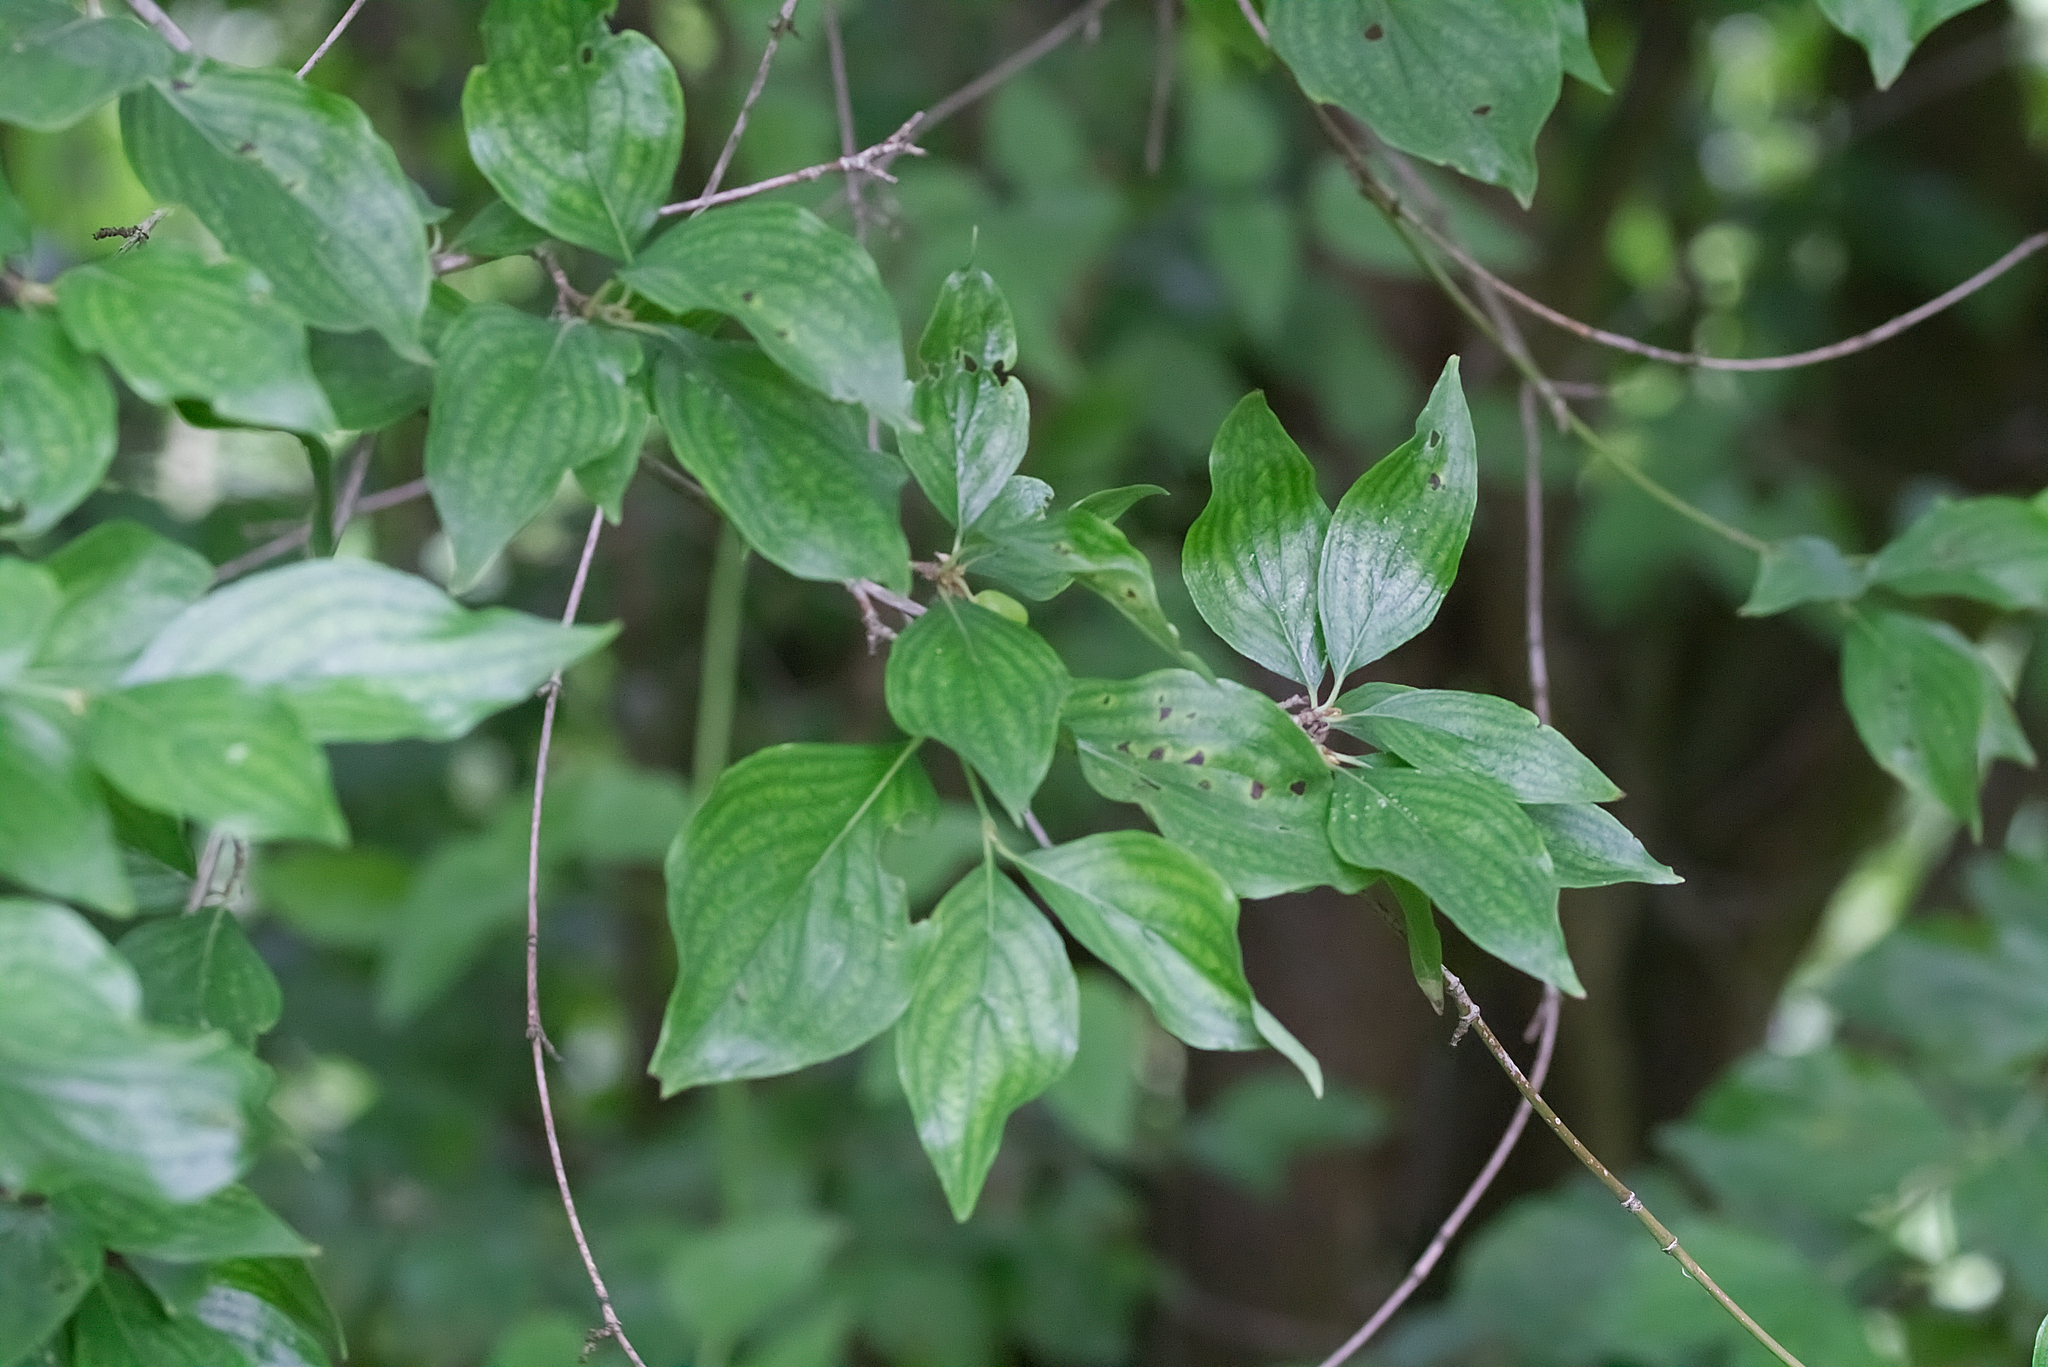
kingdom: Plantae
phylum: Tracheophyta
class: Magnoliopsida
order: Cornales
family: Cornaceae
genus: Cornus
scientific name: Cornus mas
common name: Cornelian-cherry
